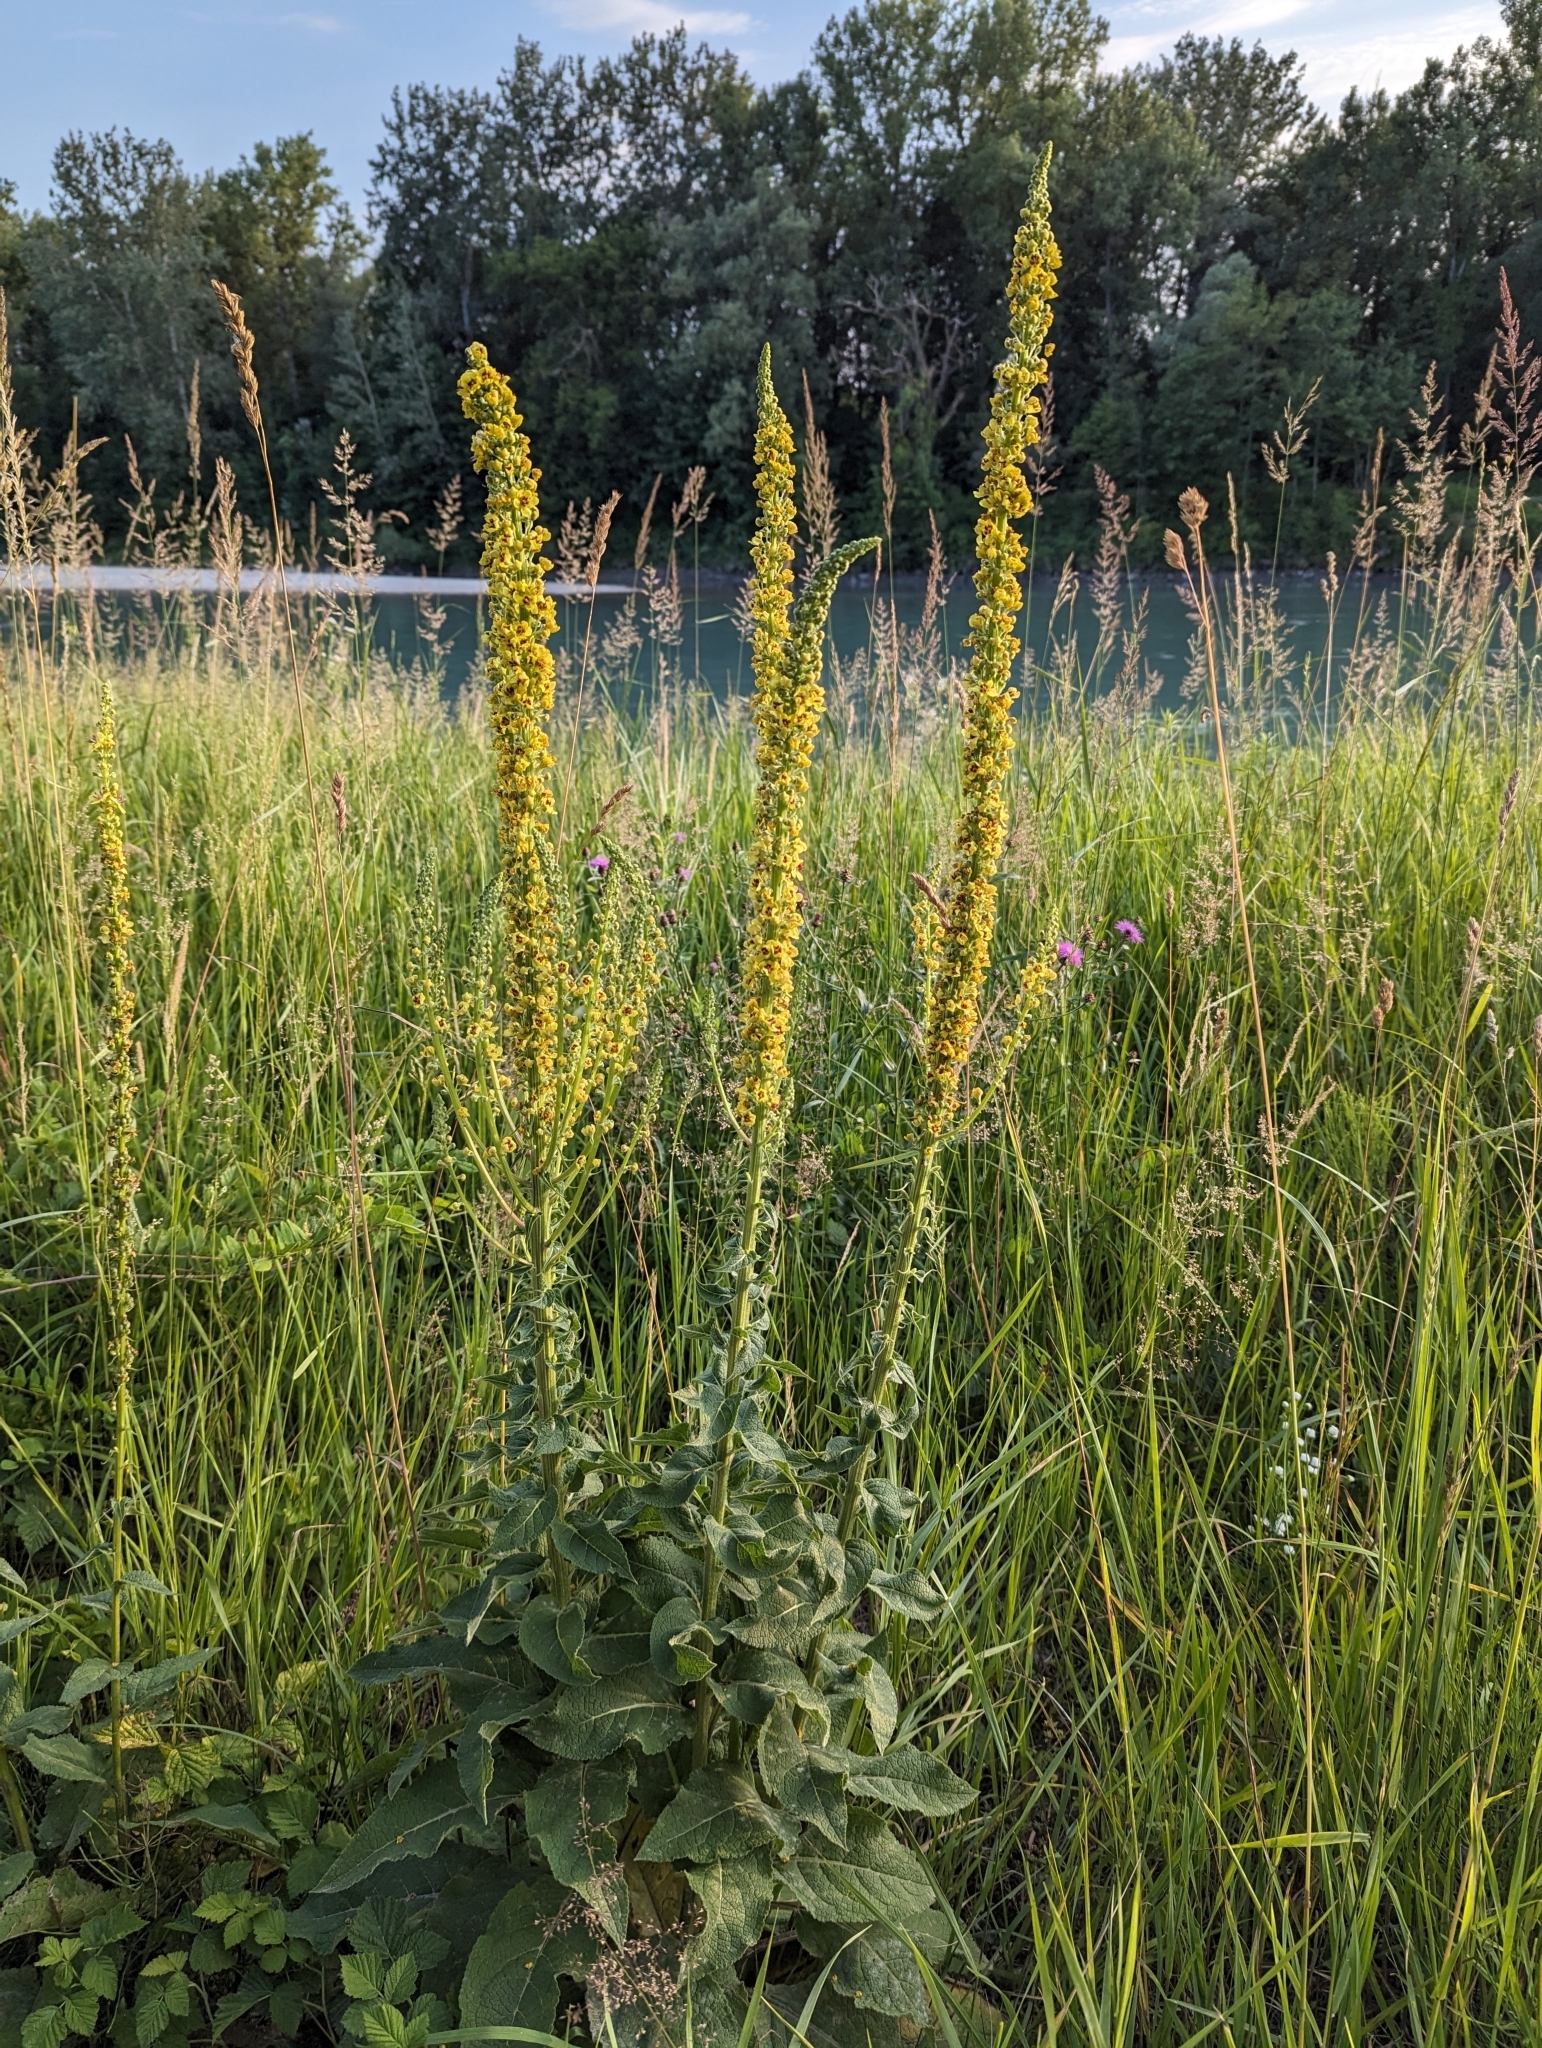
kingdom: Plantae
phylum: Tracheophyta
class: Magnoliopsida
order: Lamiales
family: Scrophulariaceae
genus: Verbascum
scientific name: Verbascum nigrum
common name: Dark mullein
